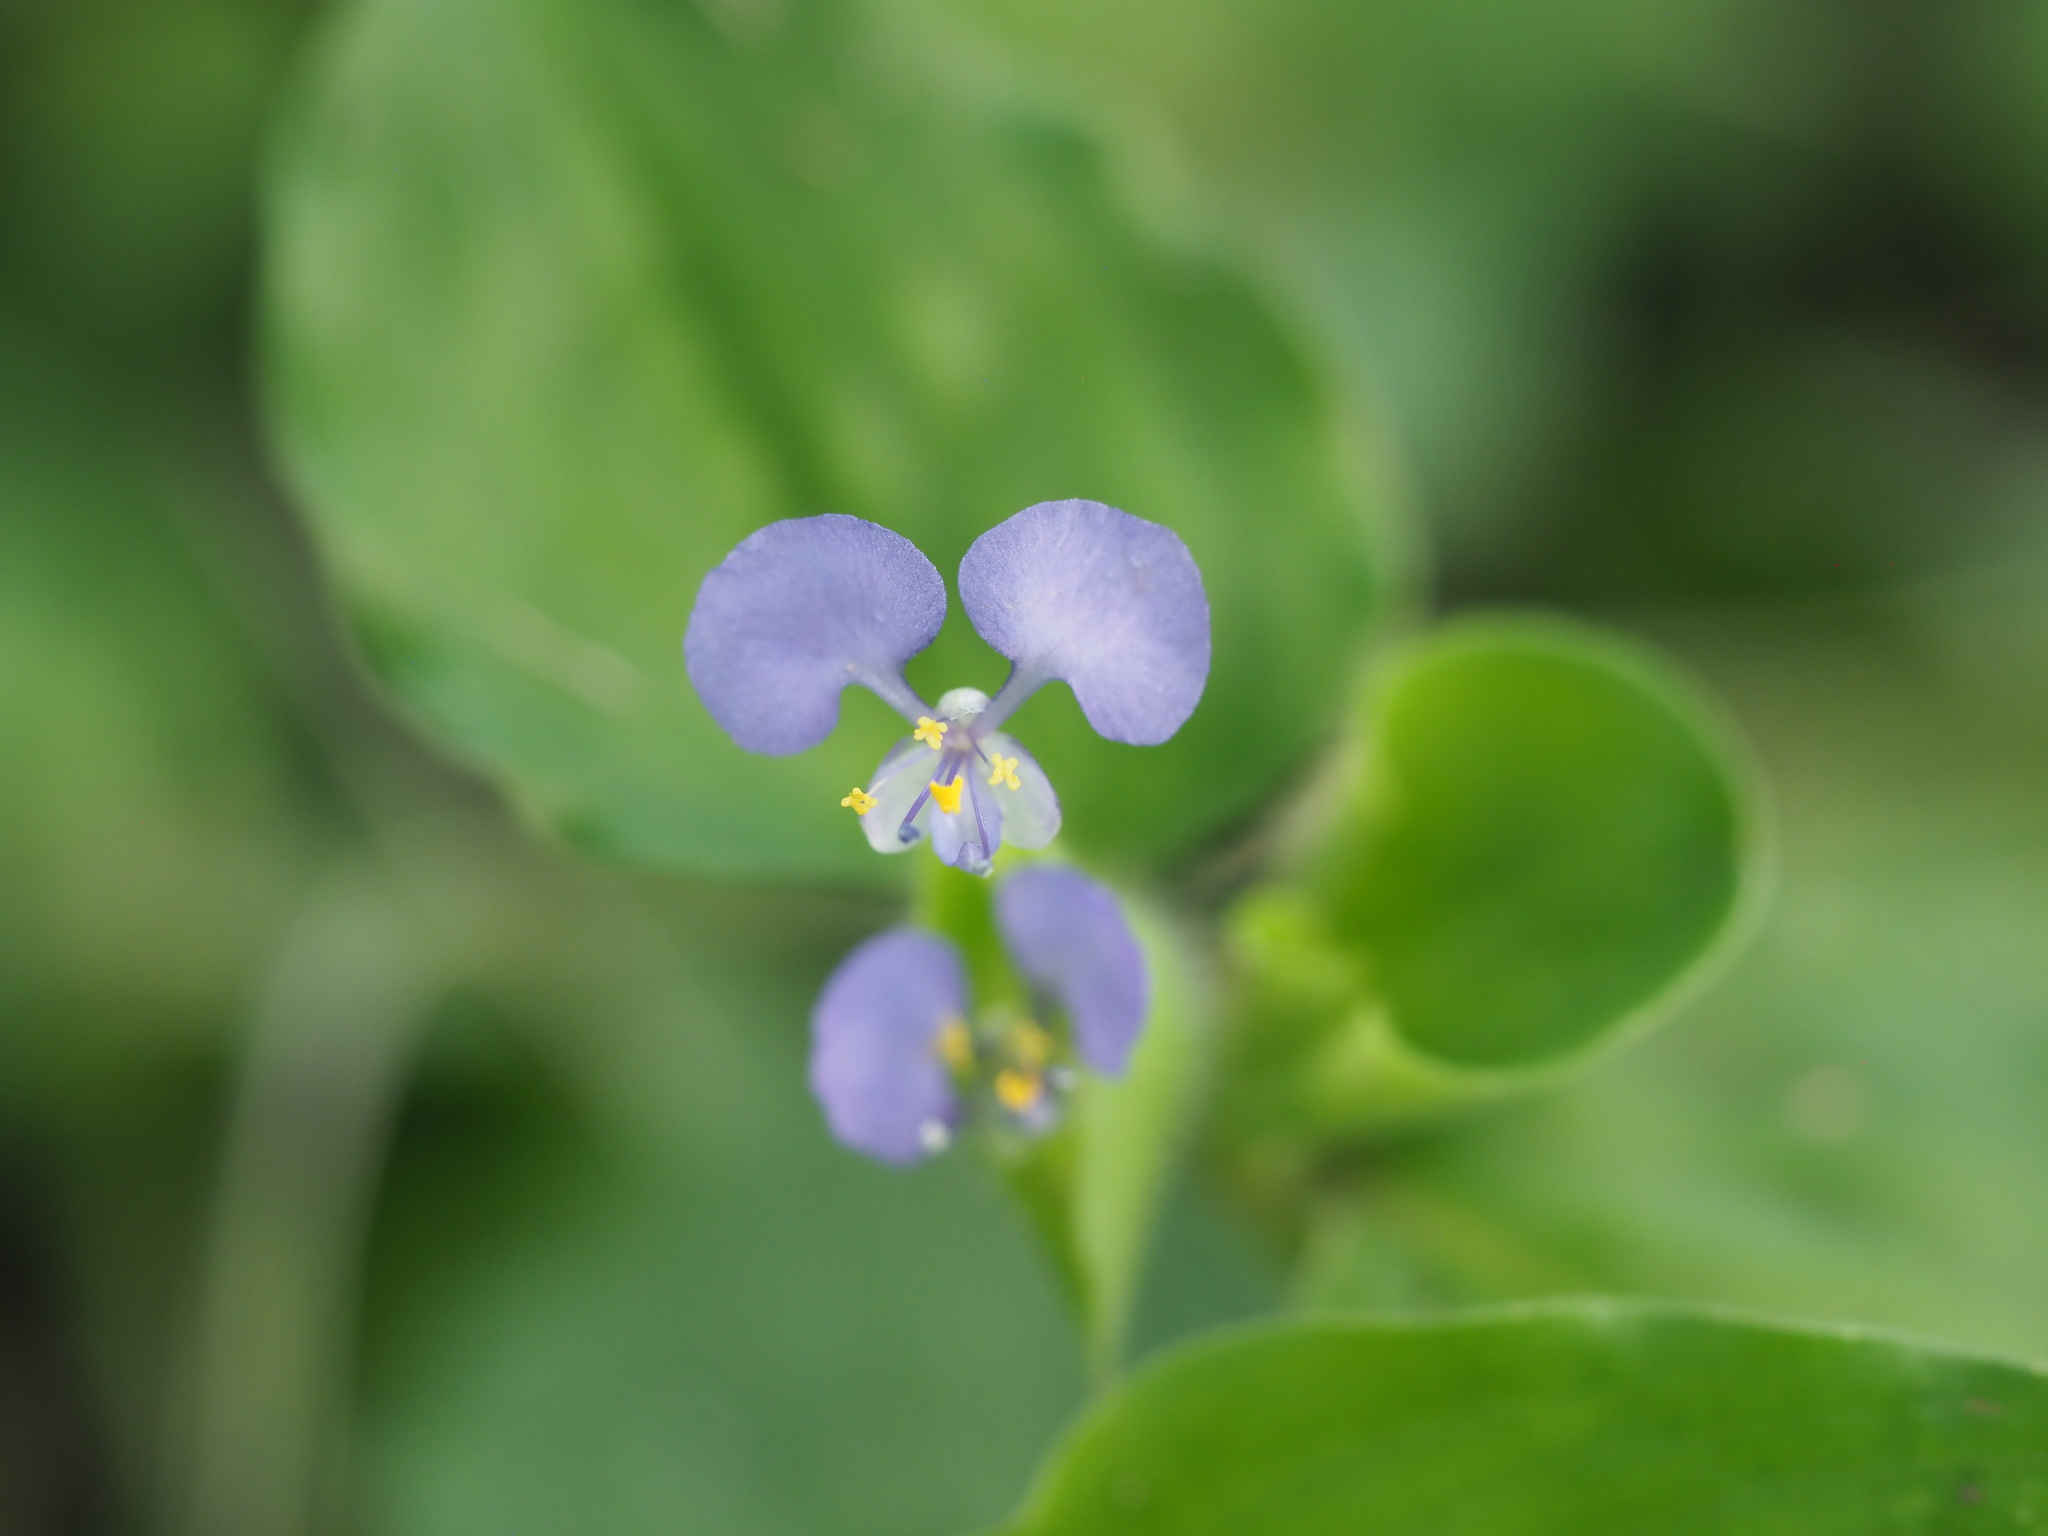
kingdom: Plantae
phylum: Tracheophyta
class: Liliopsida
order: Commelinales
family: Commelinaceae
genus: Commelina
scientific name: Commelina benghalensis
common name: Jio
